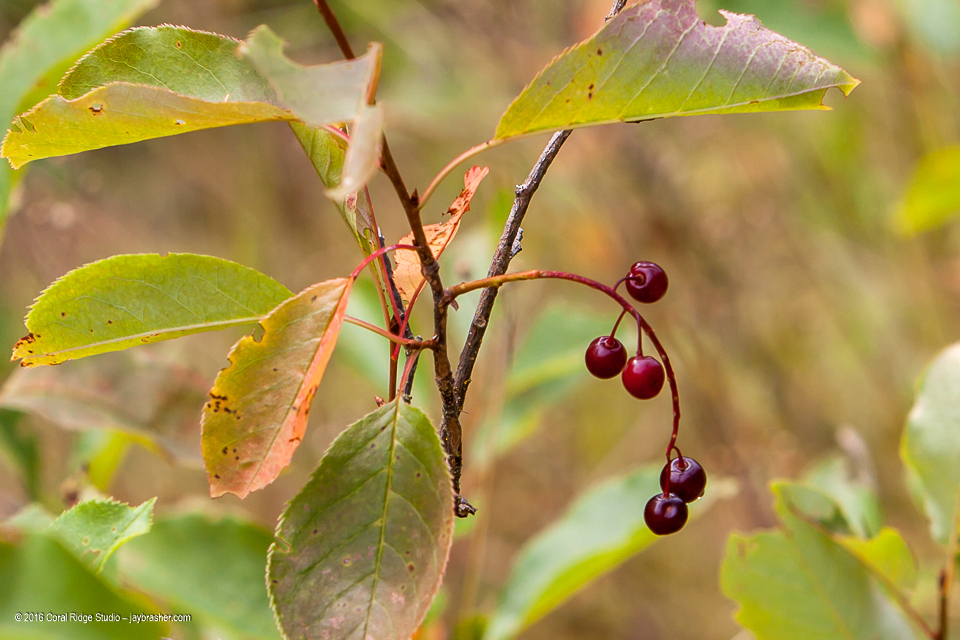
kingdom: Plantae
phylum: Tracheophyta
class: Magnoliopsida
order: Rosales
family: Rosaceae
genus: Prunus
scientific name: Prunus virginiana
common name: Chokecherry
